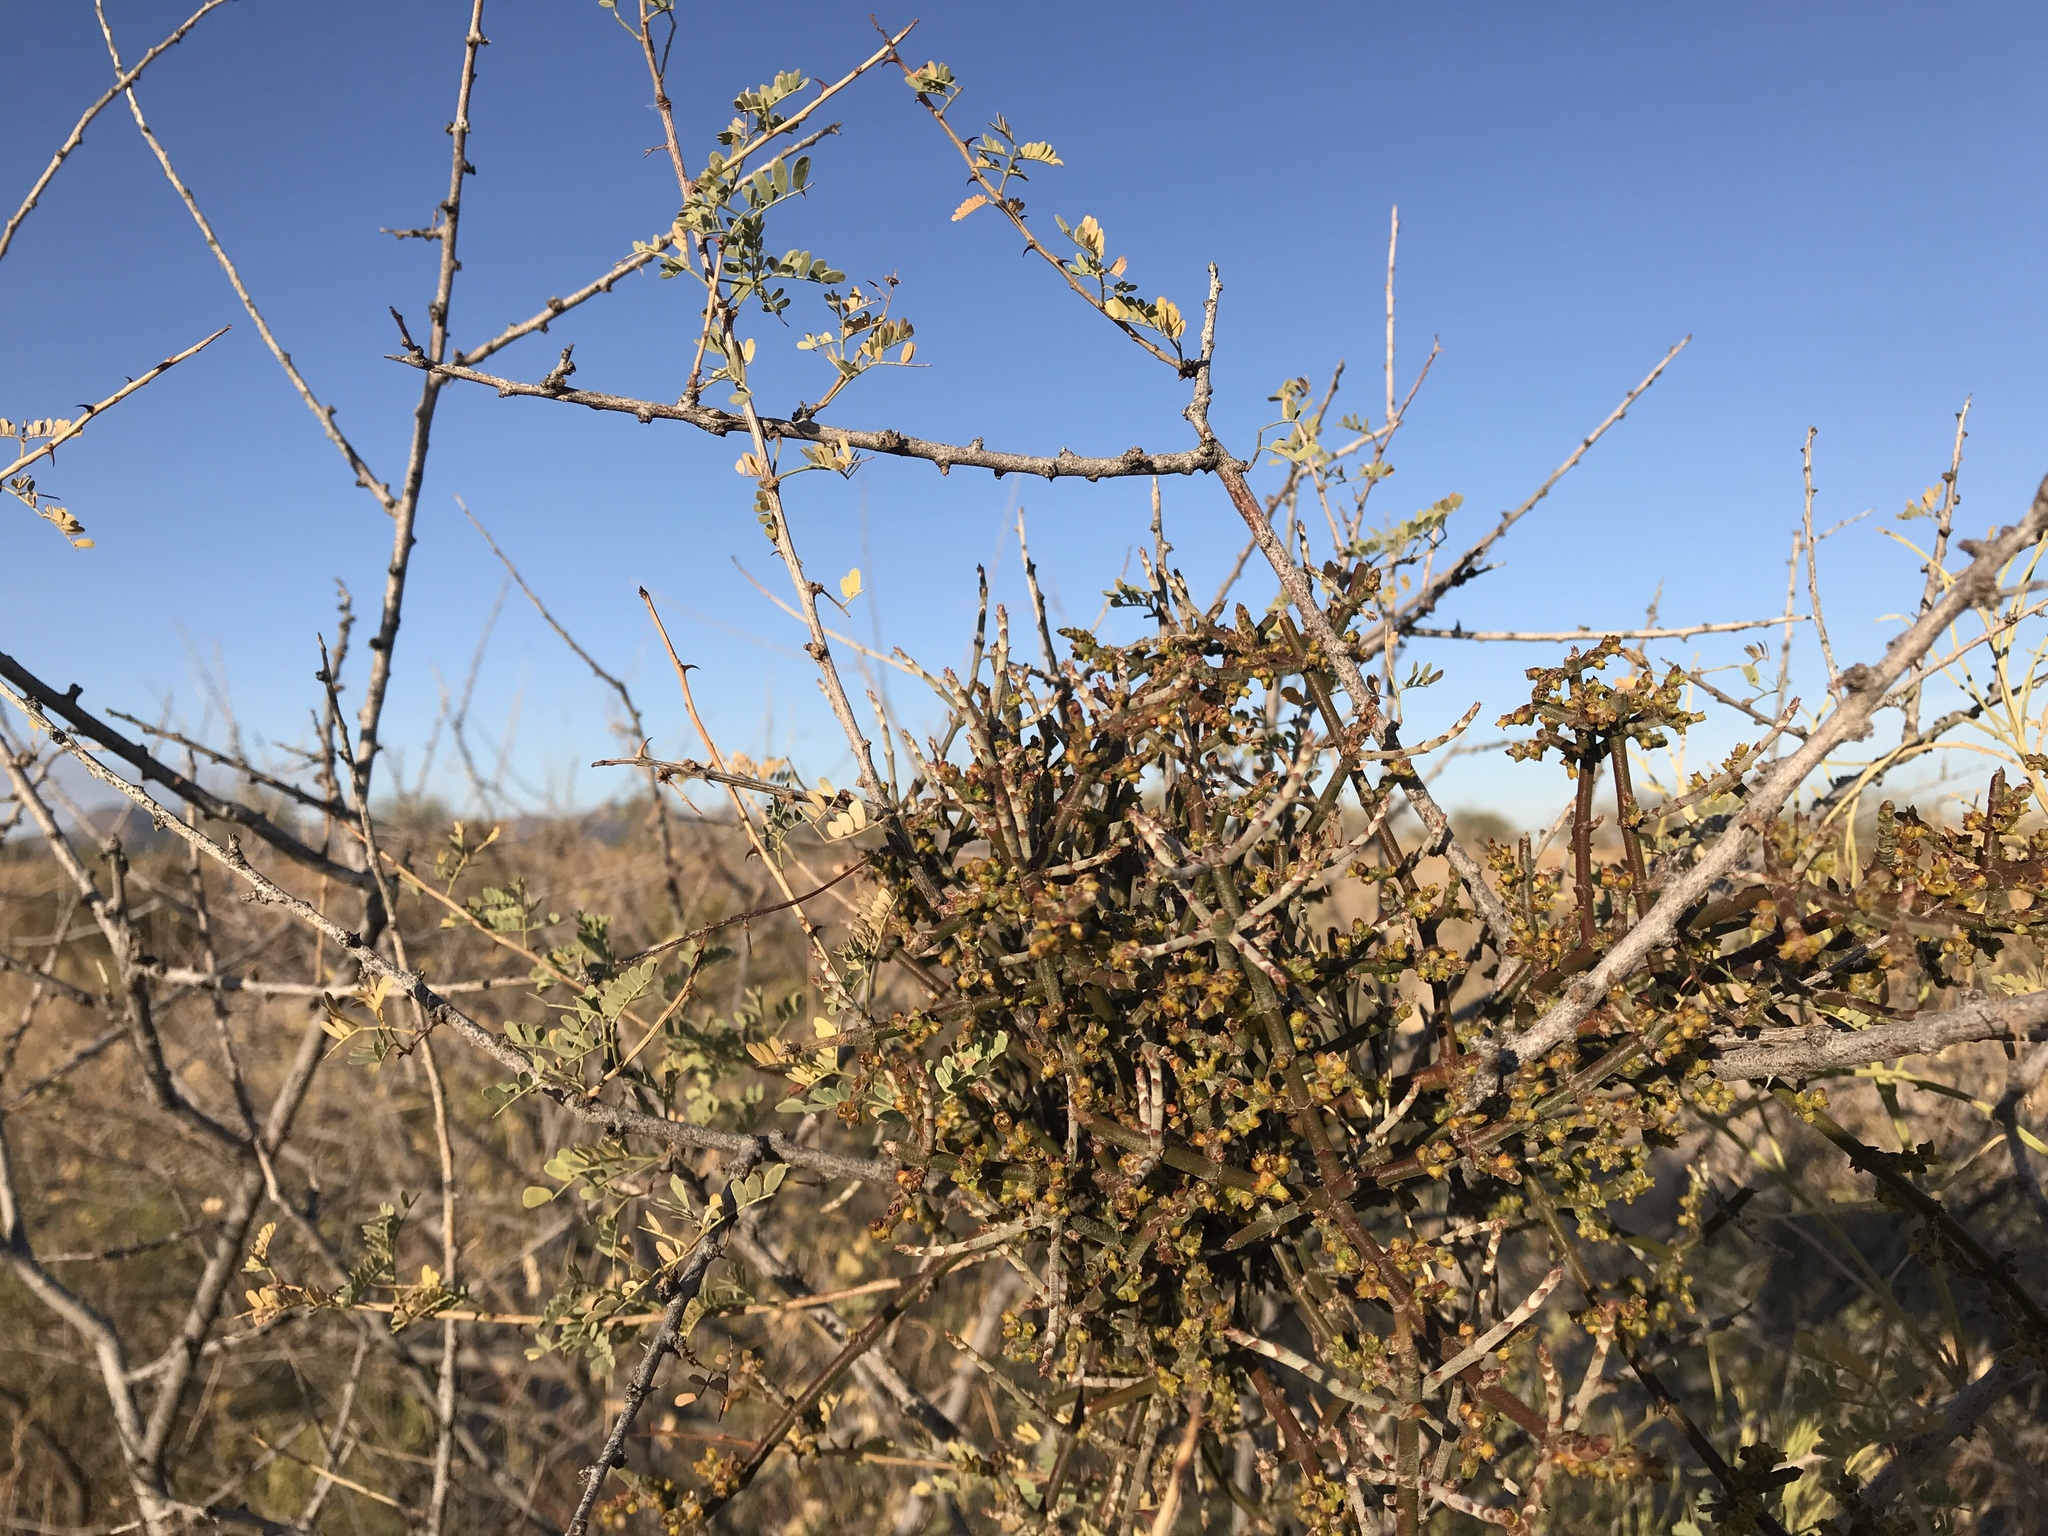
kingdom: Plantae
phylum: Tracheophyta
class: Magnoliopsida
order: Santalales
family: Viscaceae
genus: Phoradendron
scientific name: Phoradendron californicum
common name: Acacia mistletoe
